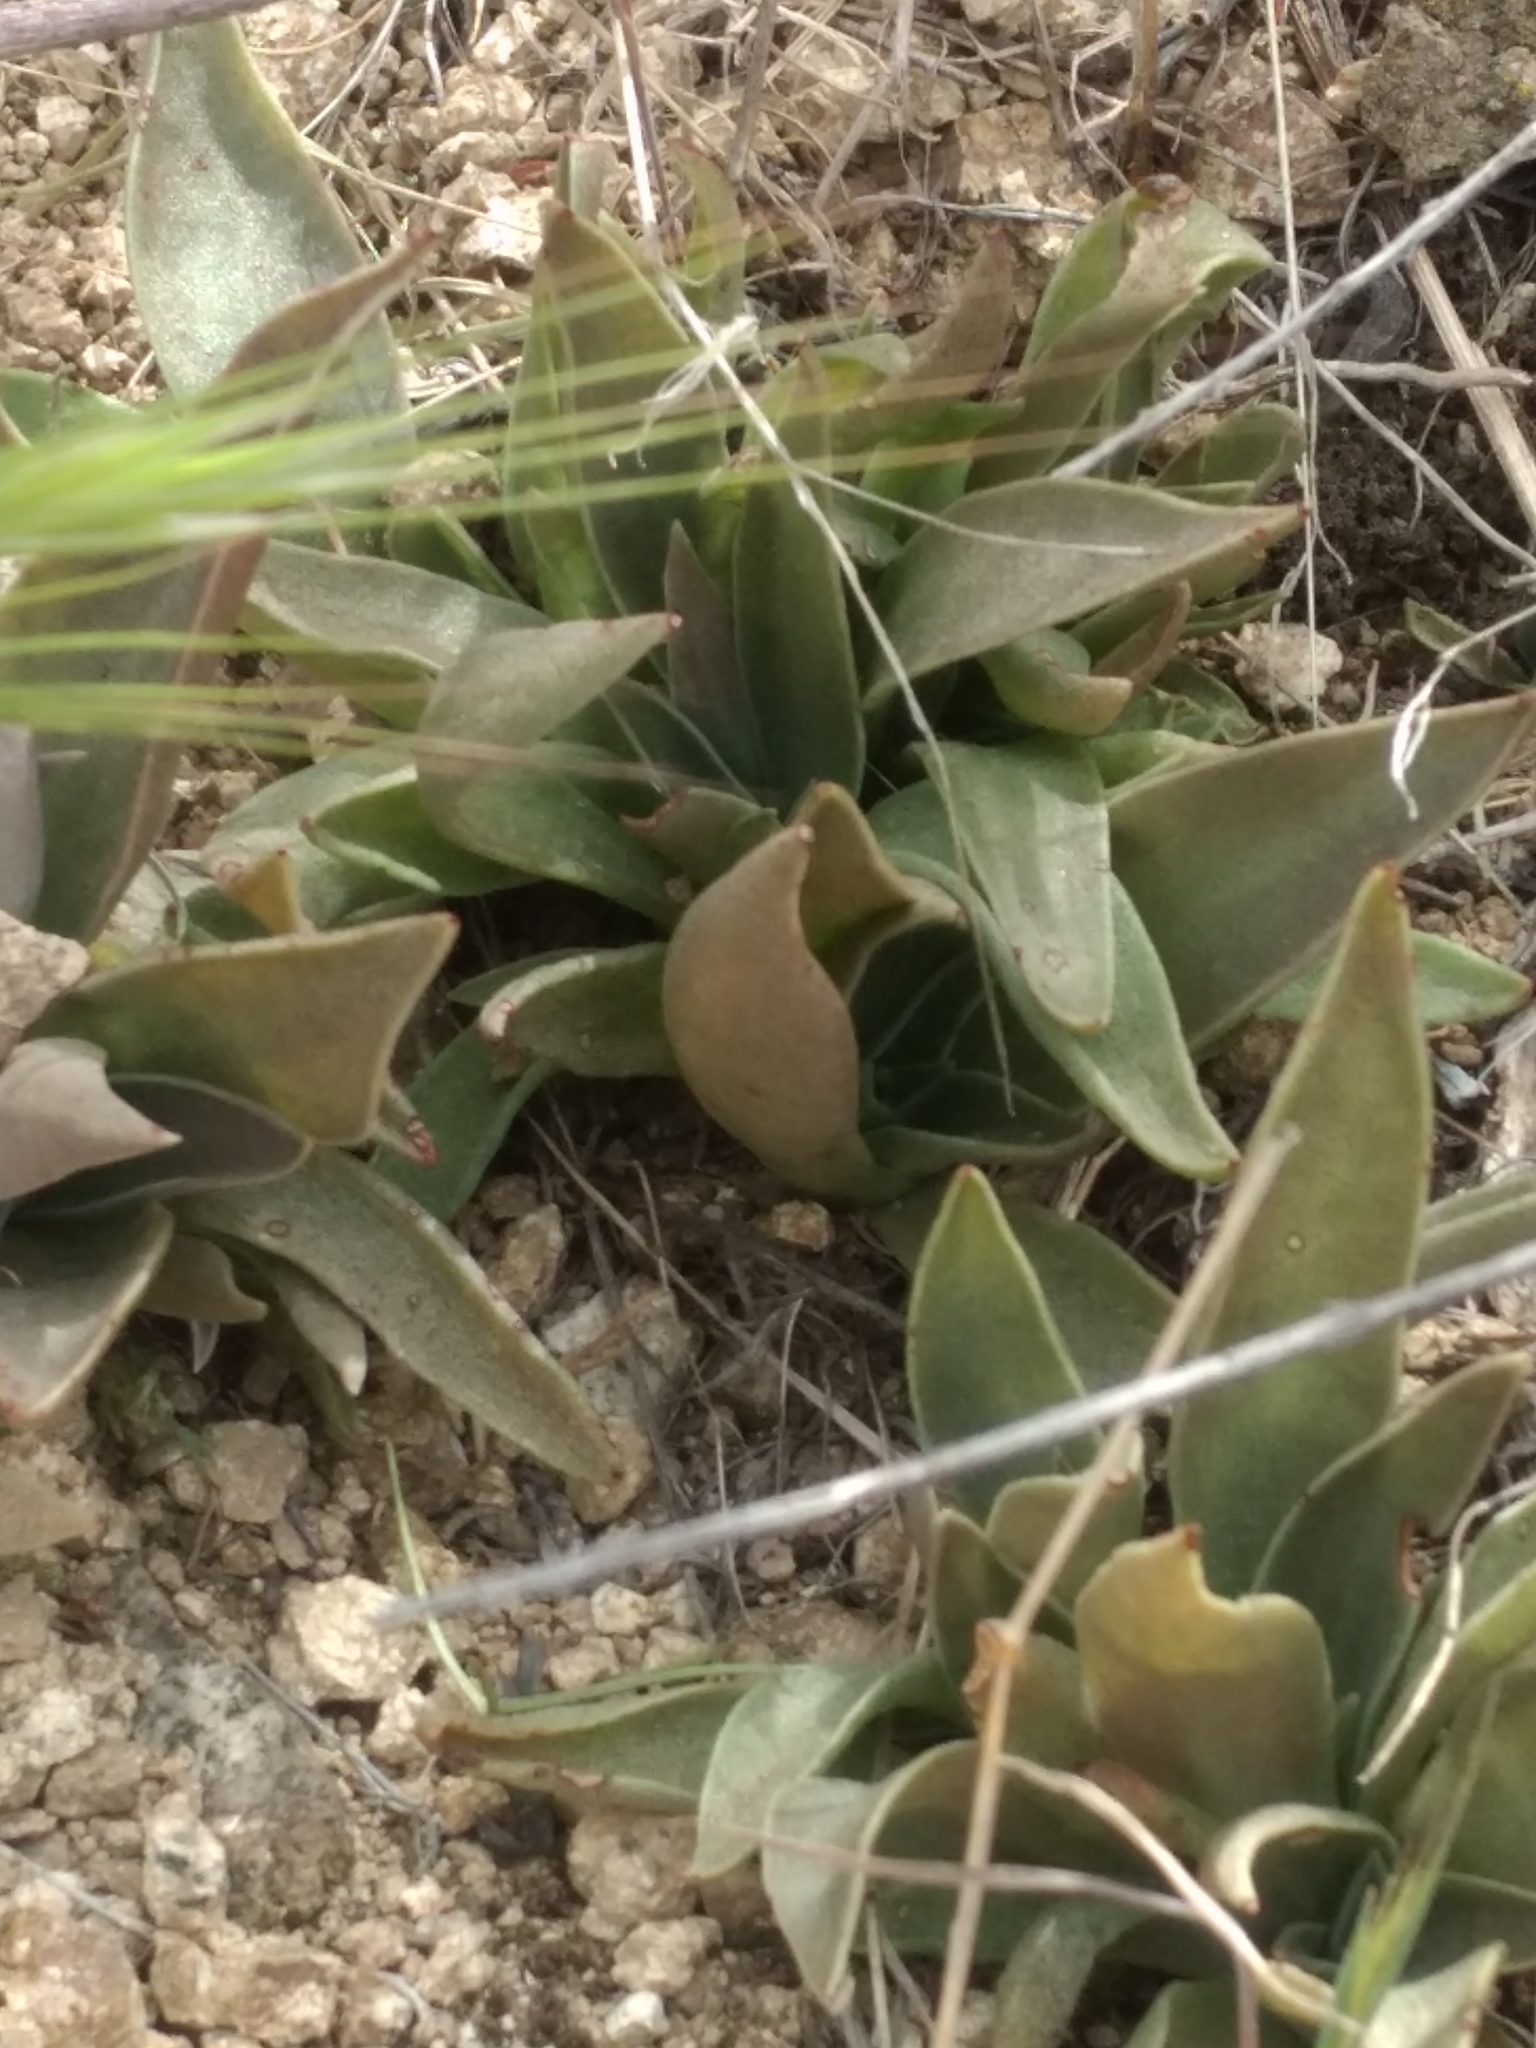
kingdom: Plantae
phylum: Tracheophyta
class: Magnoliopsida
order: Saxifragales
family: Crassulaceae
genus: Dudleya
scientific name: Dudleya lanceolata
